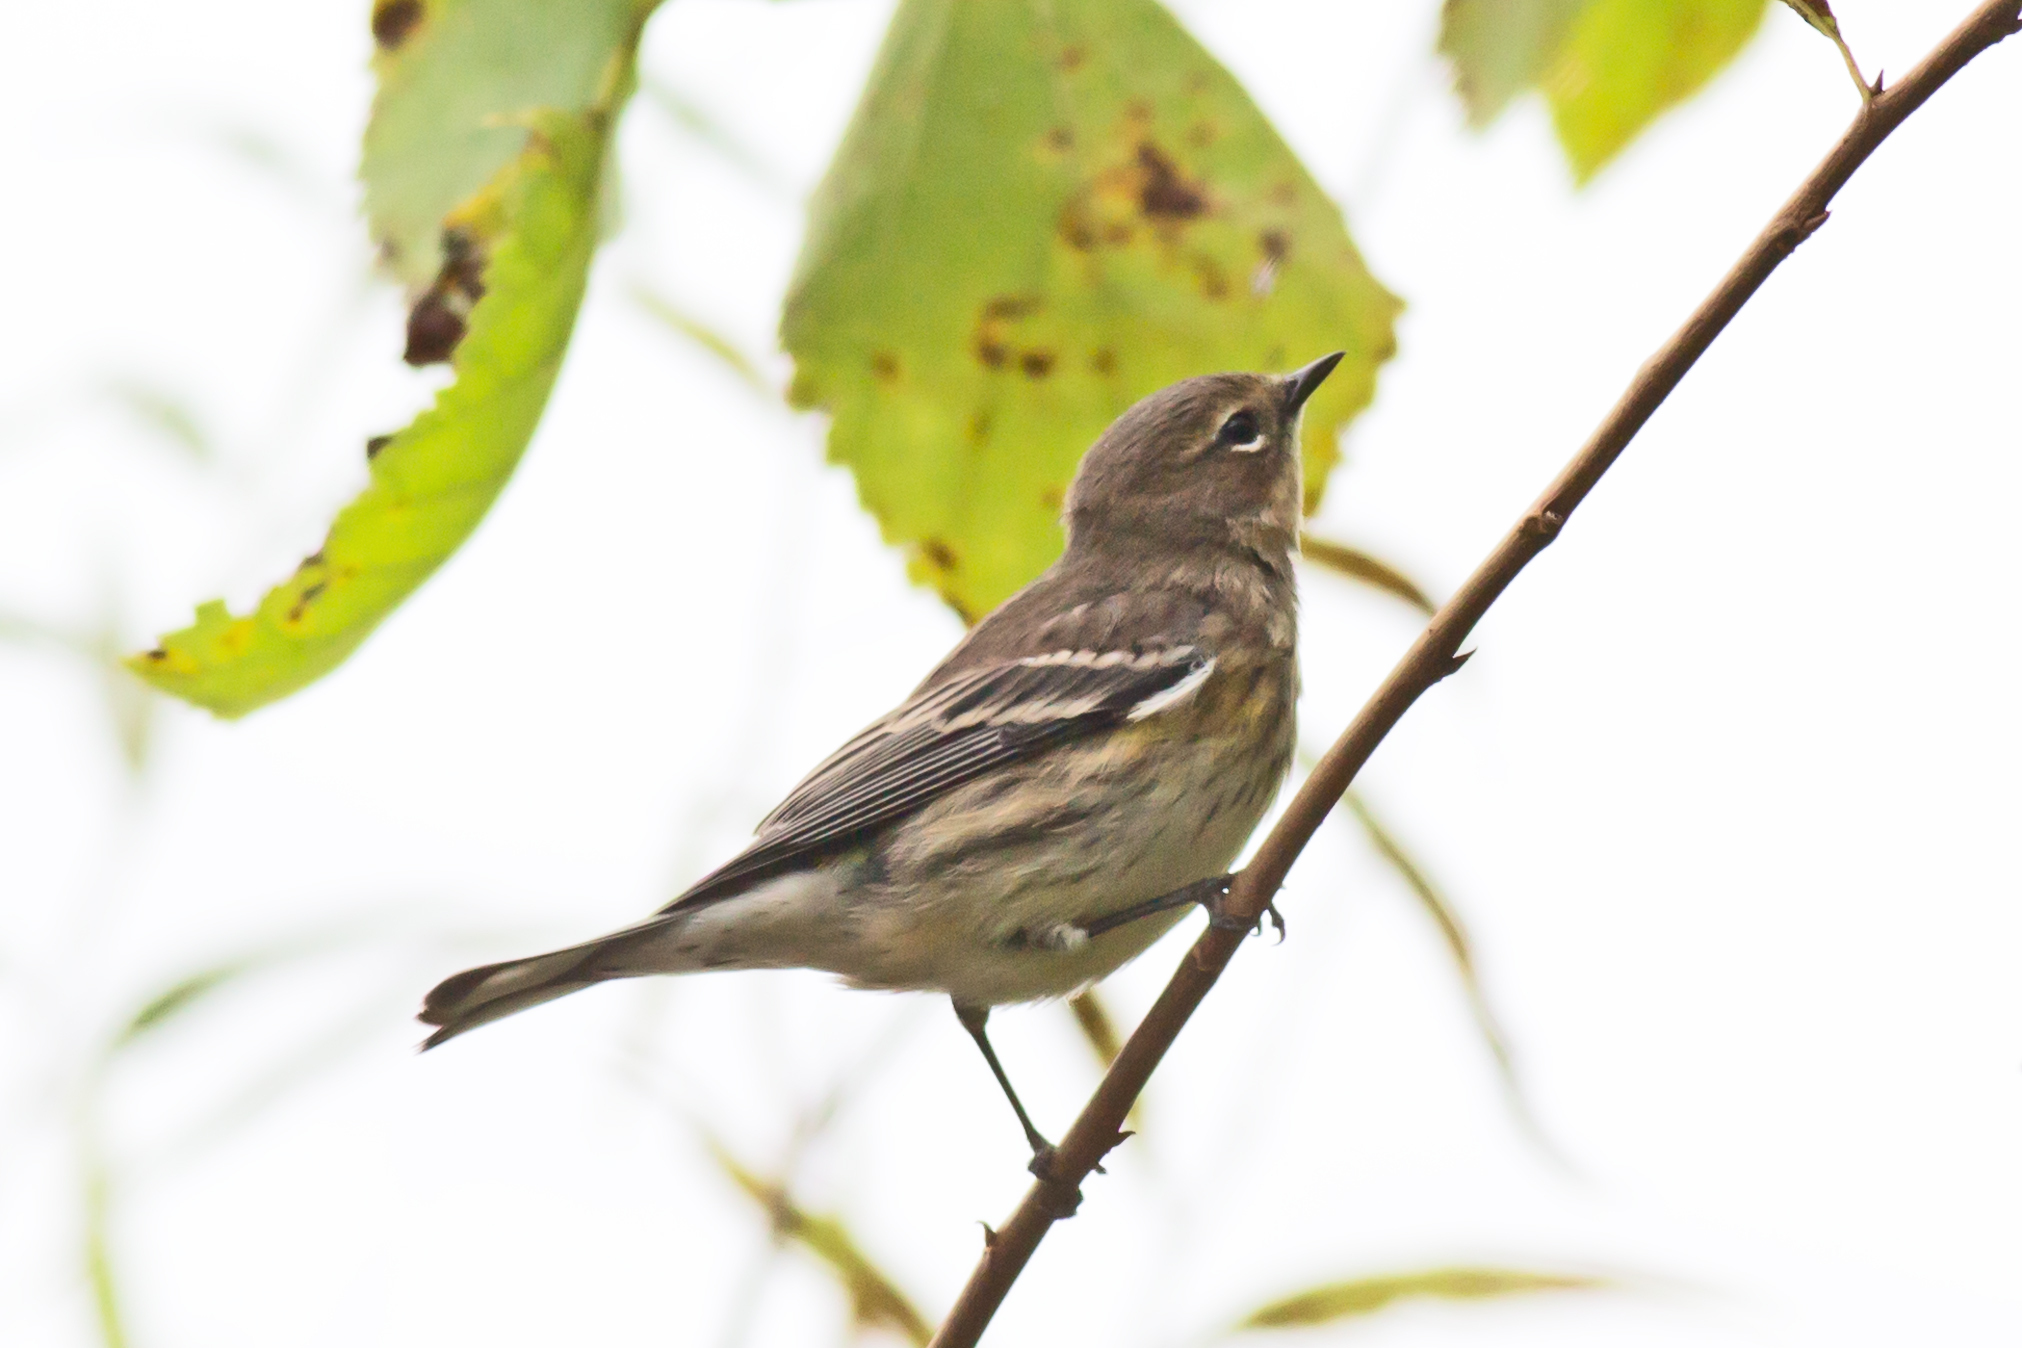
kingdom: Animalia
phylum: Chordata
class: Aves
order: Passeriformes
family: Parulidae
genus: Setophaga
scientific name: Setophaga coronata
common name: Myrtle warbler
